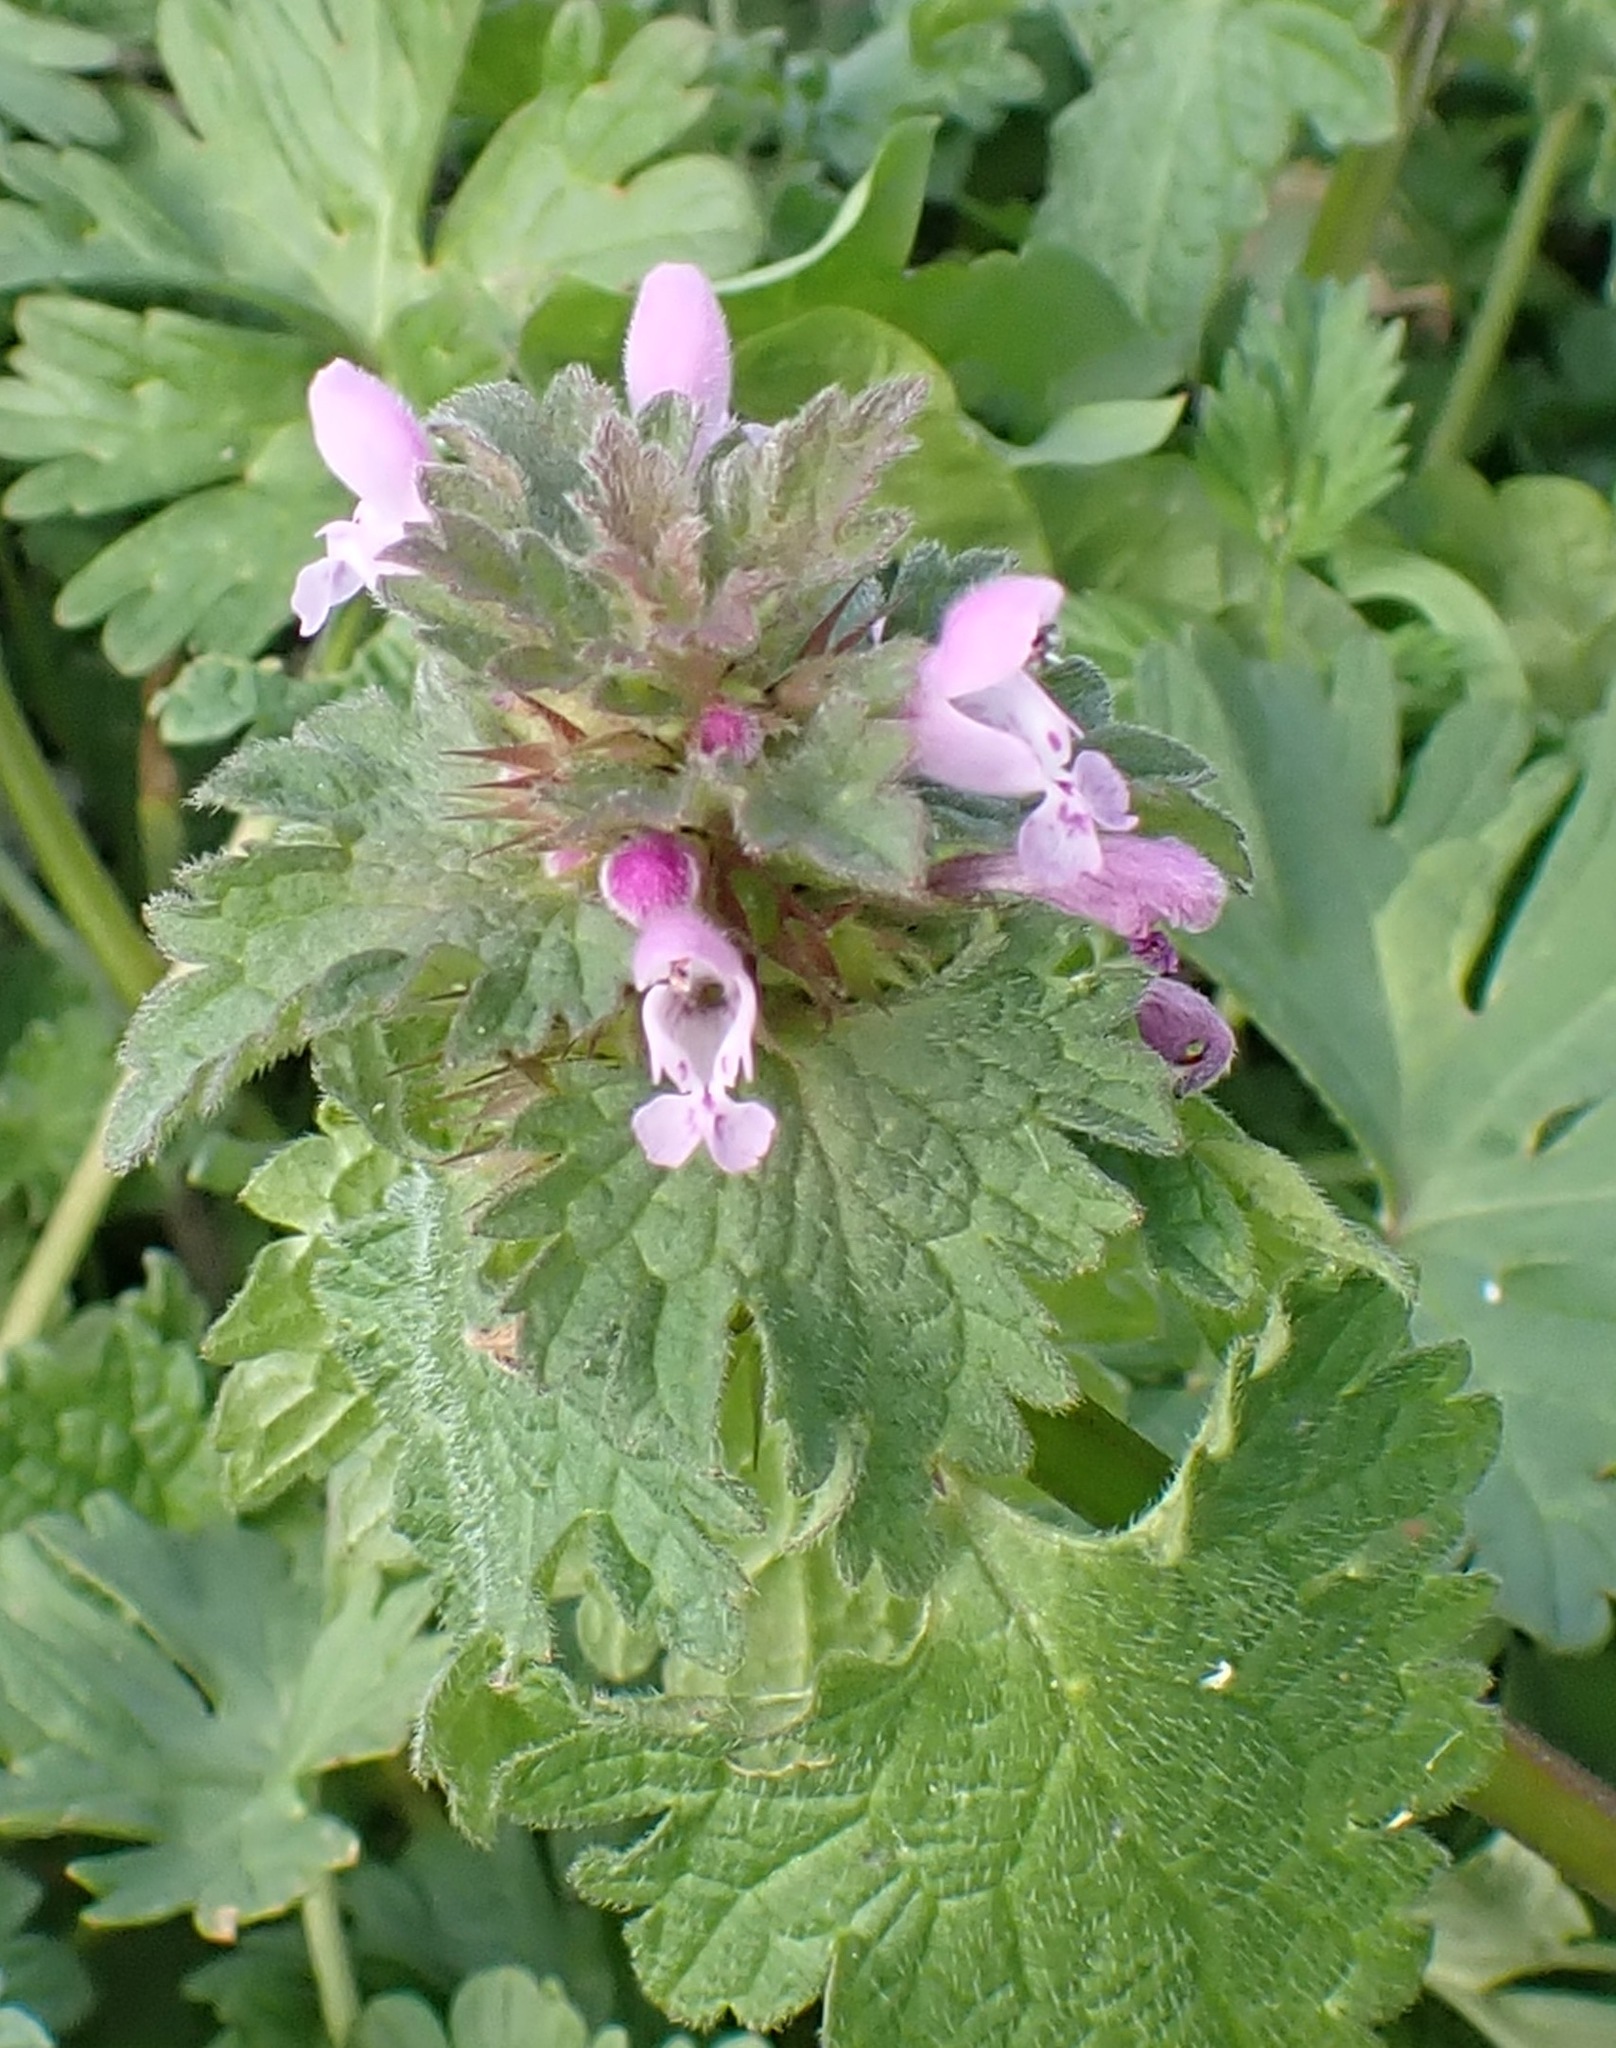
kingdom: Plantae
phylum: Tracheophyta
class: Magnoliopsida
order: Lamiales
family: Lamiaceae
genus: Lamium
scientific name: Lamium purpureum
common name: Red dead-nettle
